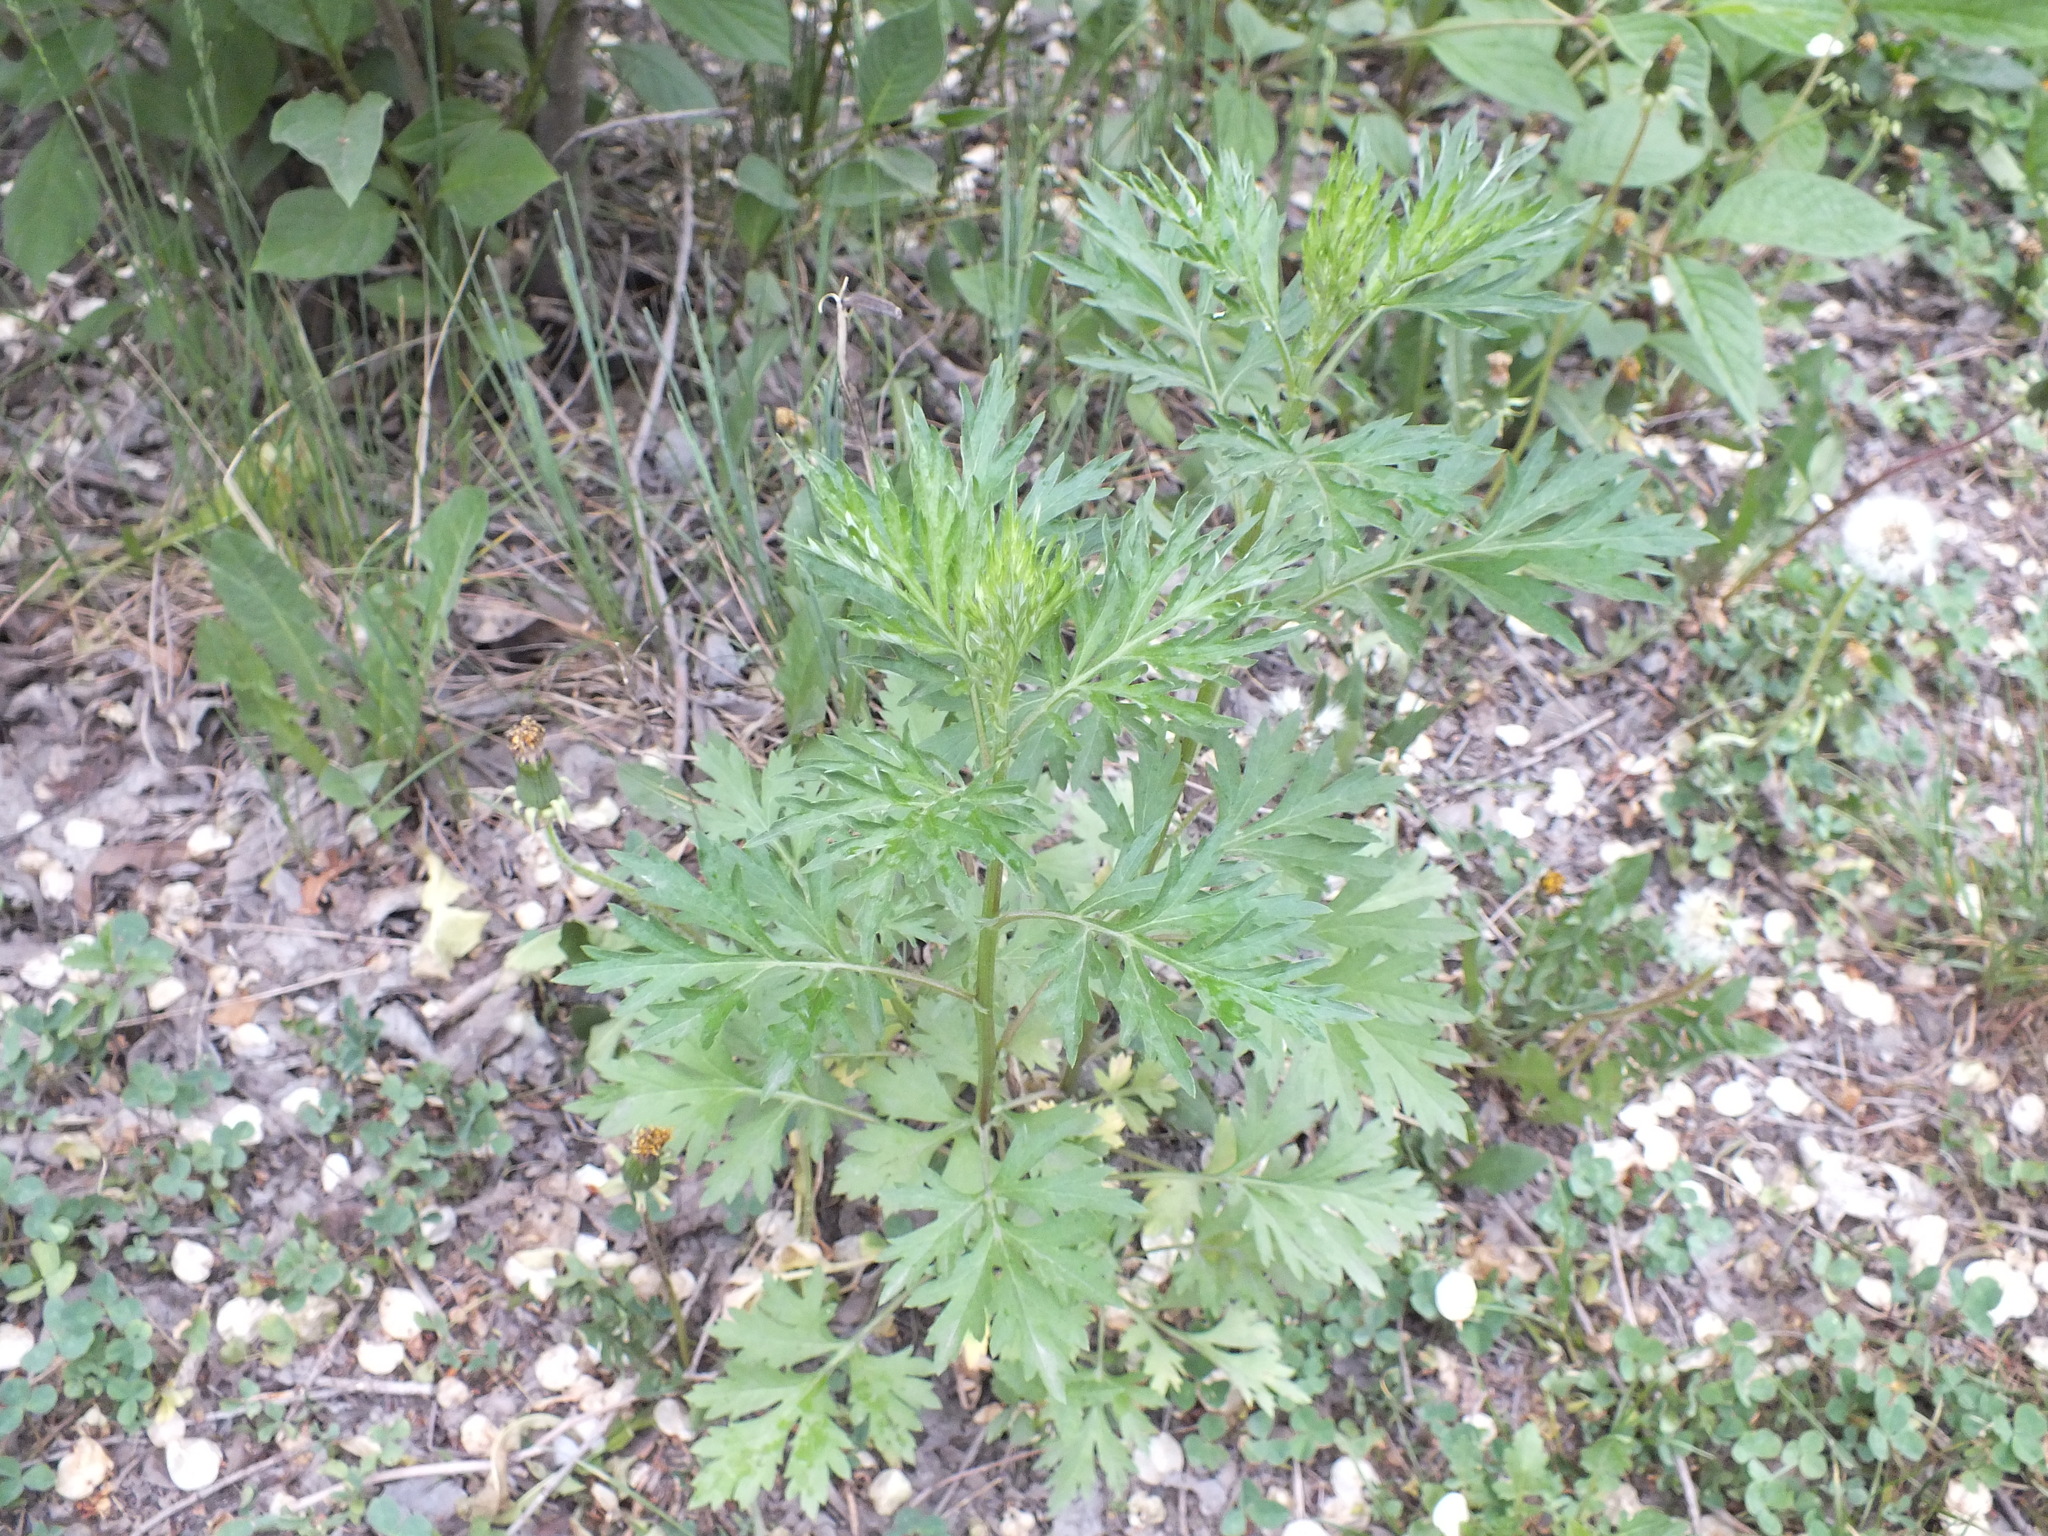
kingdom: Plantae
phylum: Tracheophyta
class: Magnoliopsida
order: Asterales
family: Asteraceae
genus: Artemisia
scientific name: Artemisia vulgaris
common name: Mugwort
